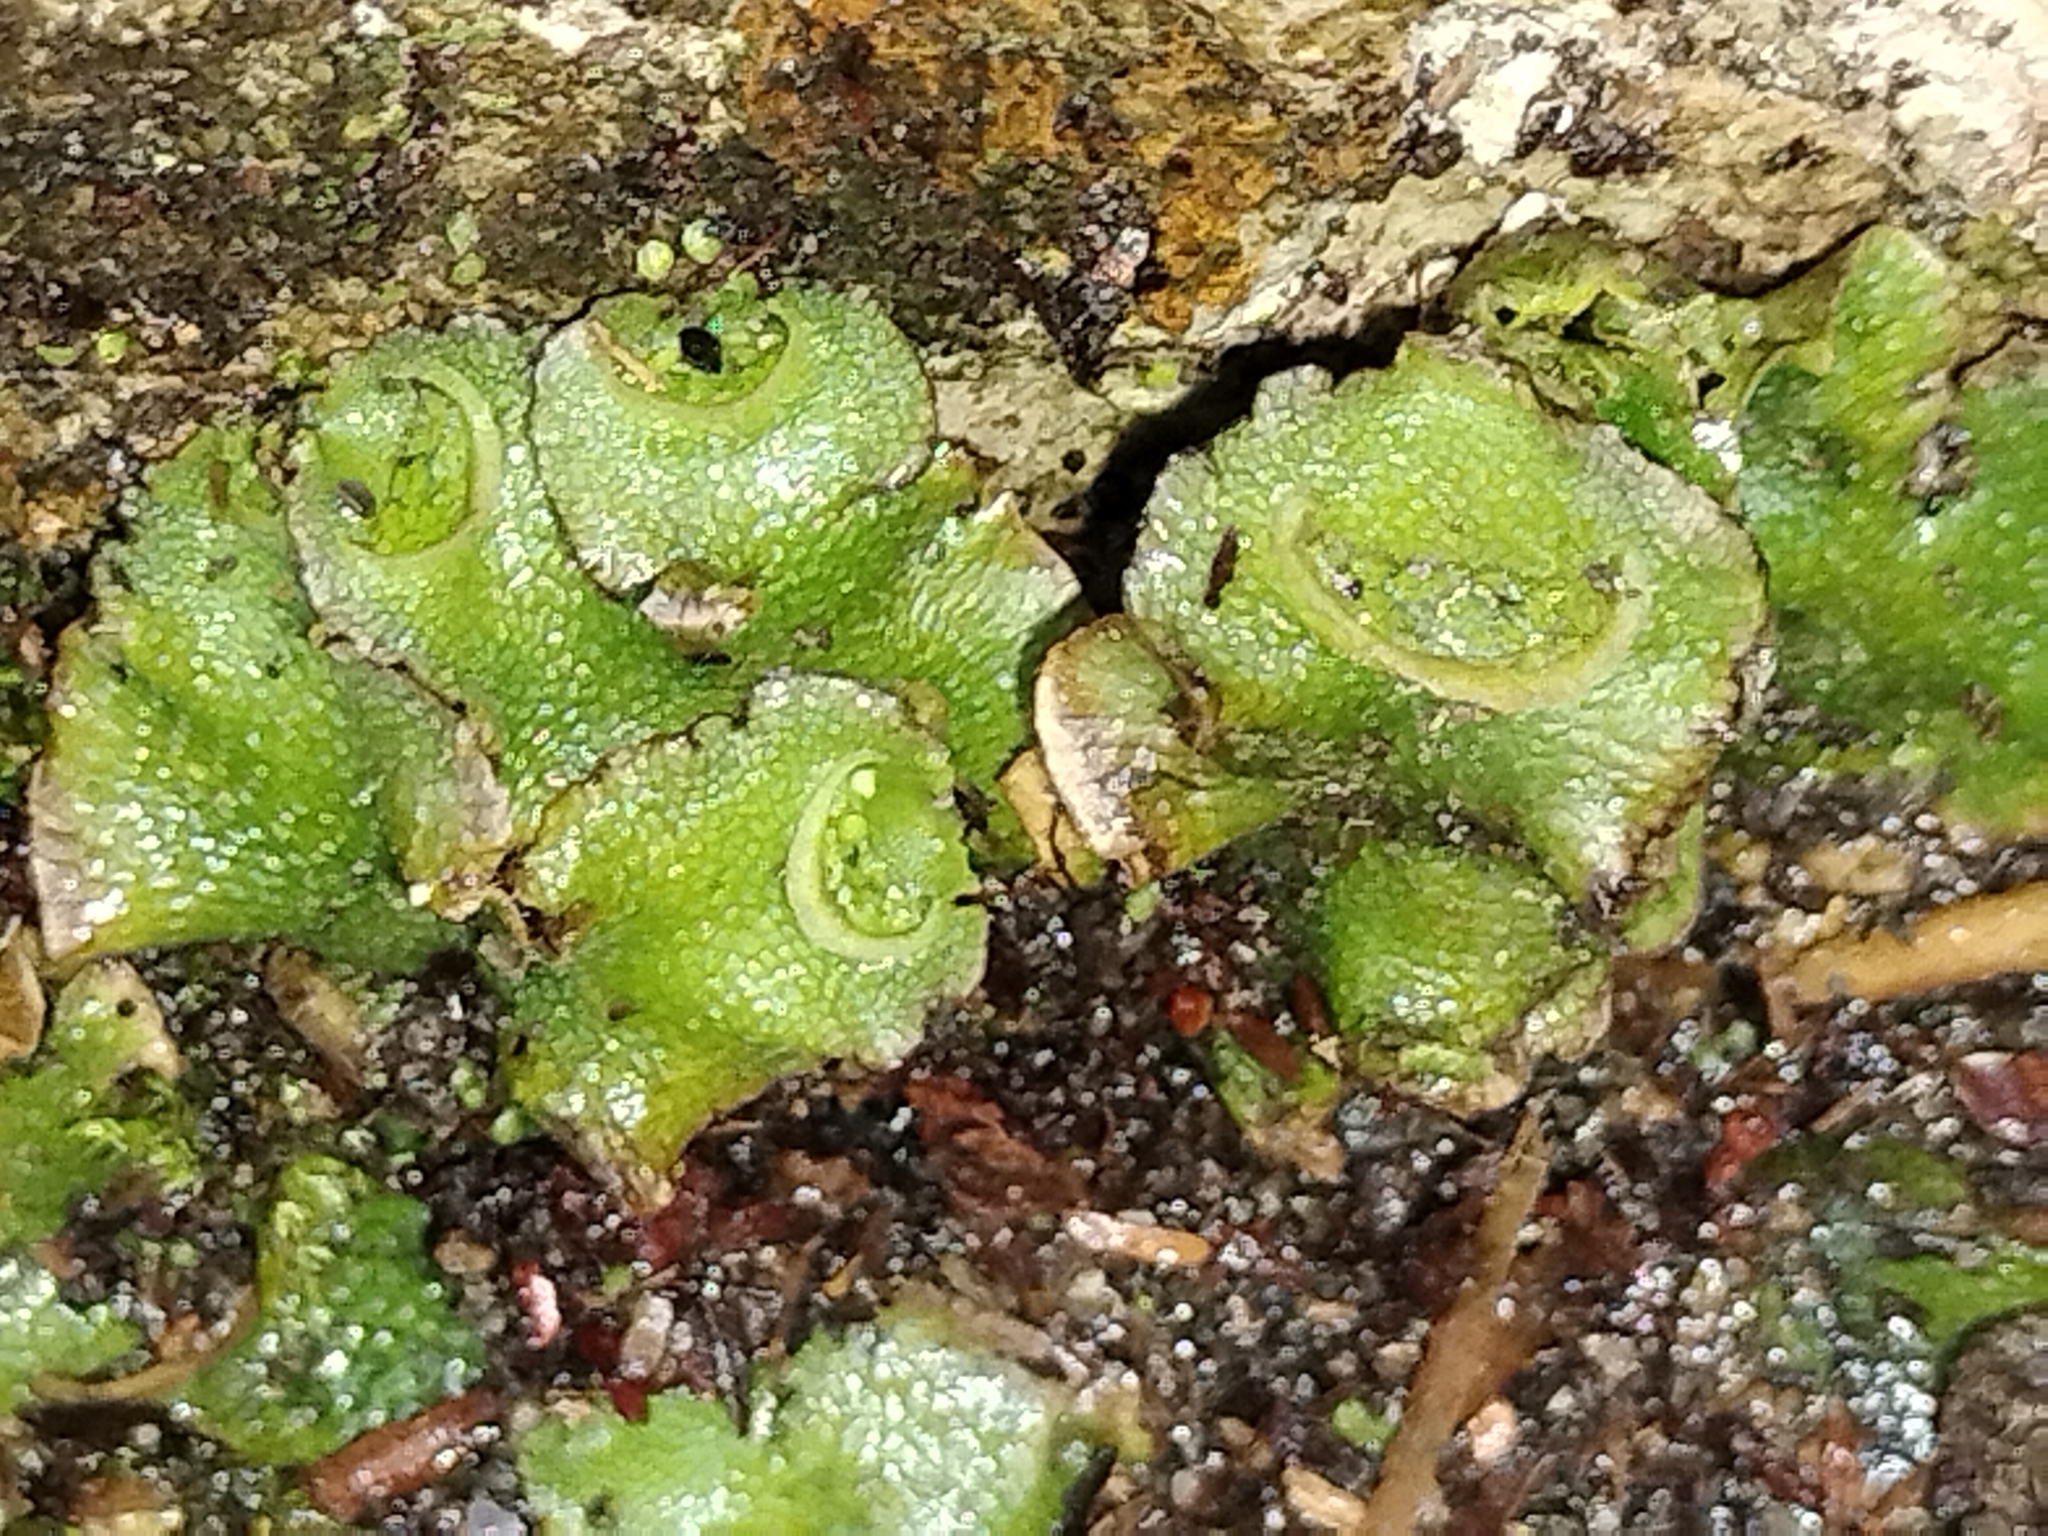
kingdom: Plantae
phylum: Marchantiophyta
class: Marchantiopsida
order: Lunulariales
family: Lunulariaceae
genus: Lunularia
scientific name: Lunularia cruciata
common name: Crescent-cup liverwort
